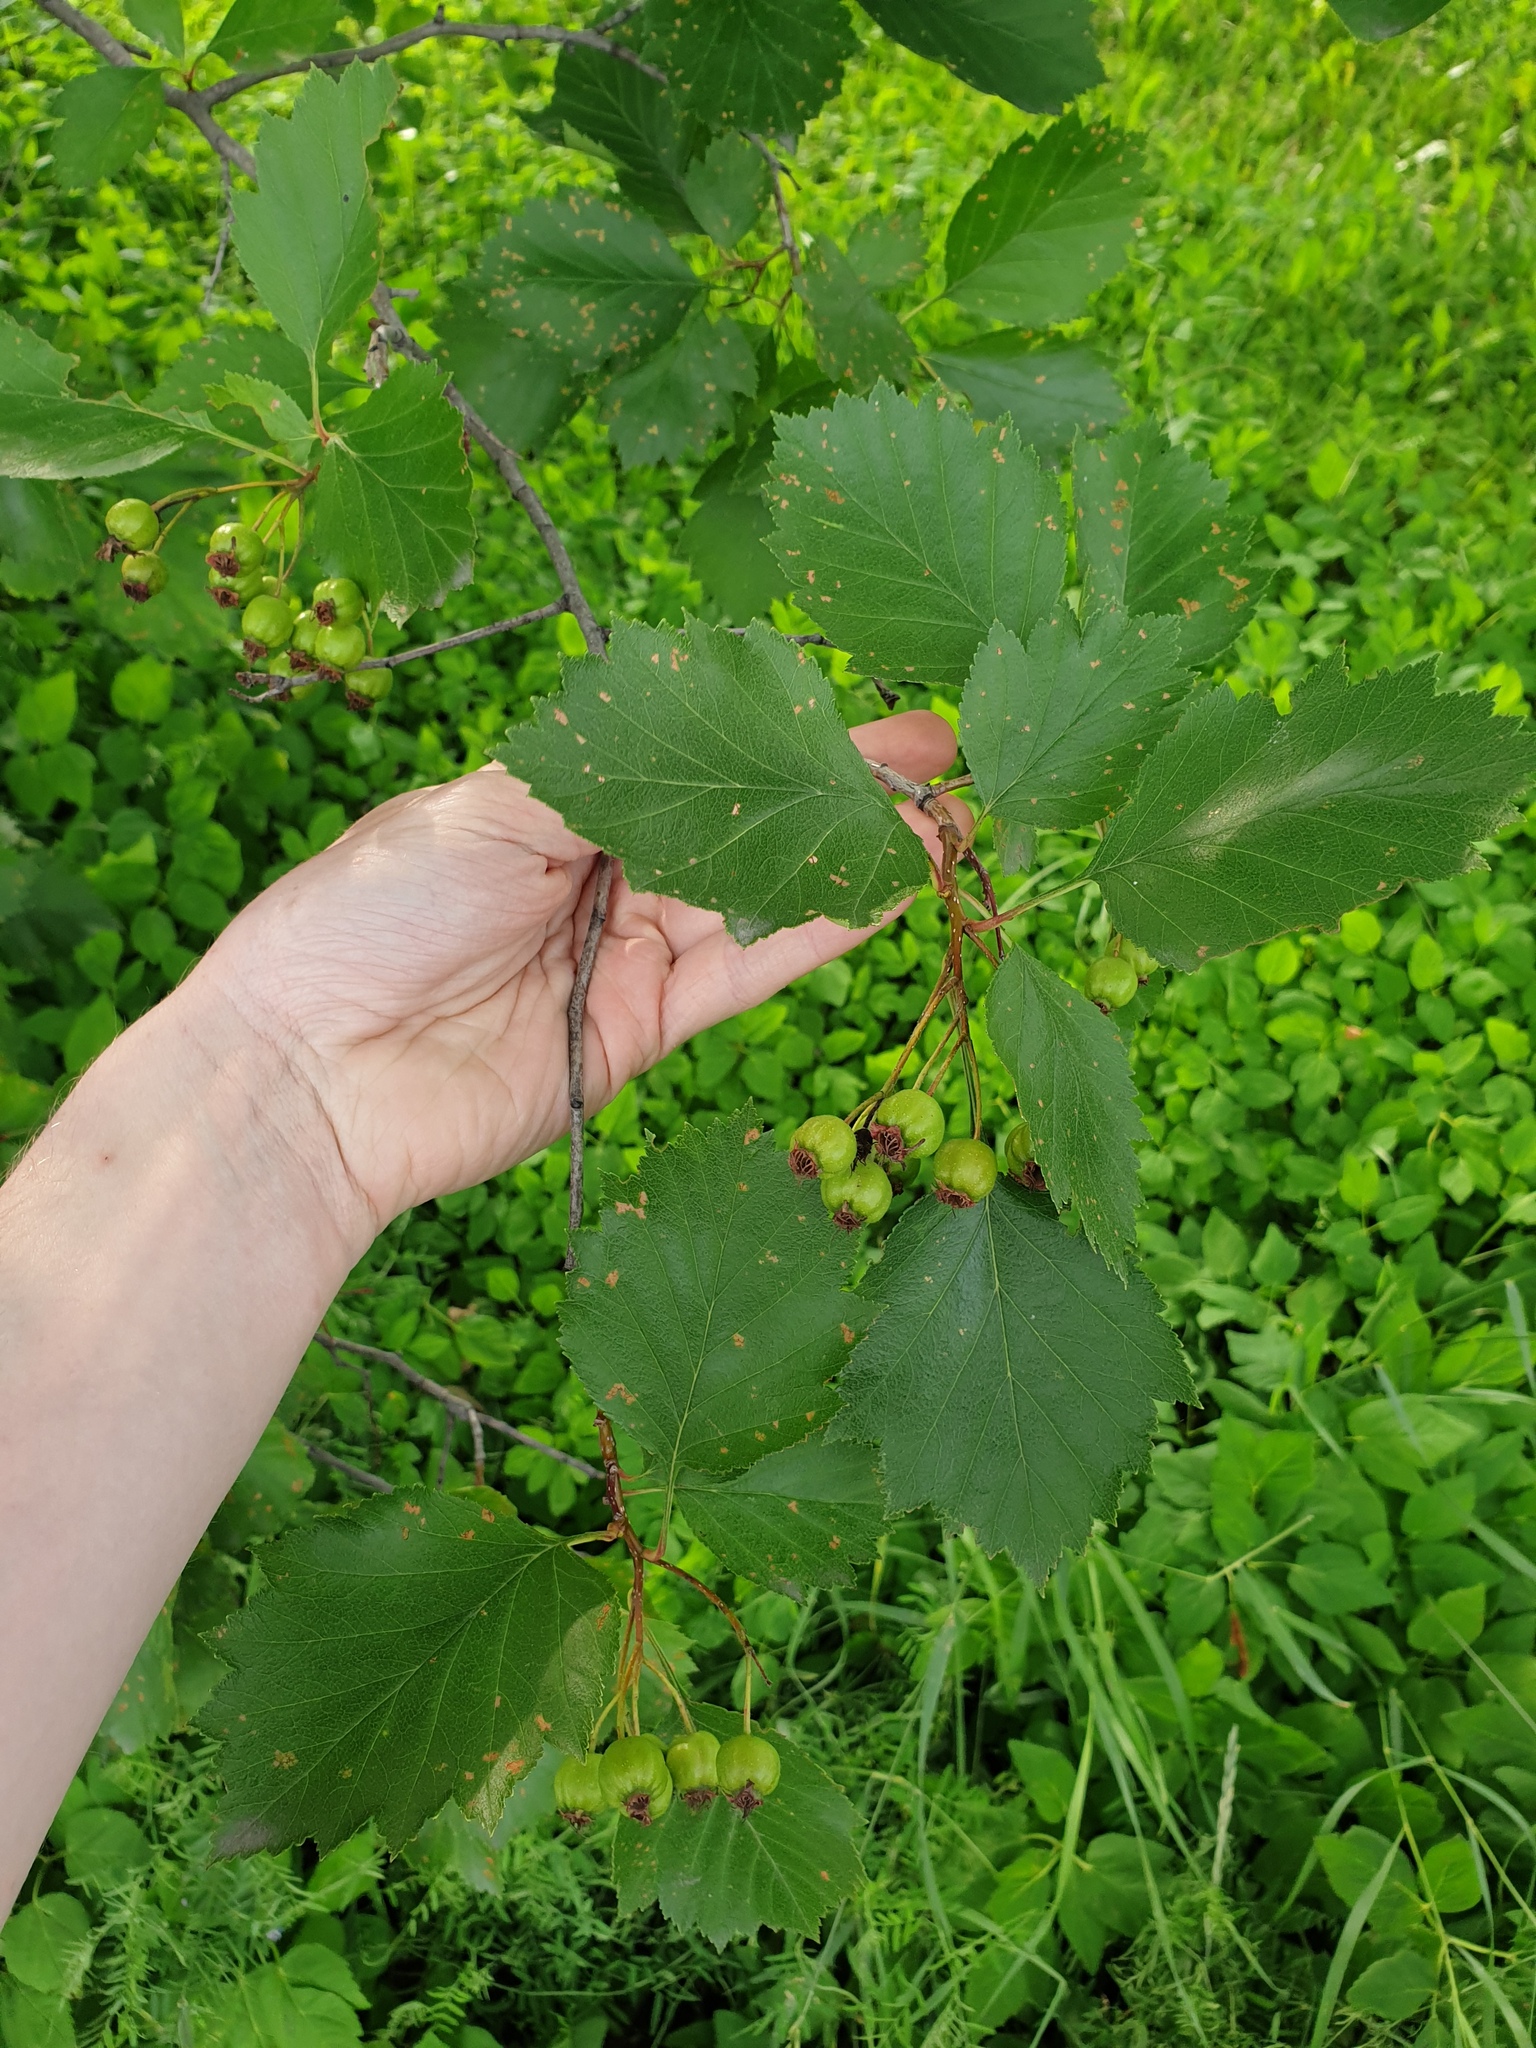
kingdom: Plantae
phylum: Tracheophyta
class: Magnoliopsida
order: Rosales
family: Rosaceae
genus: Crataegus
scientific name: Crataegus irrasa
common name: Unshorn hawthorn
